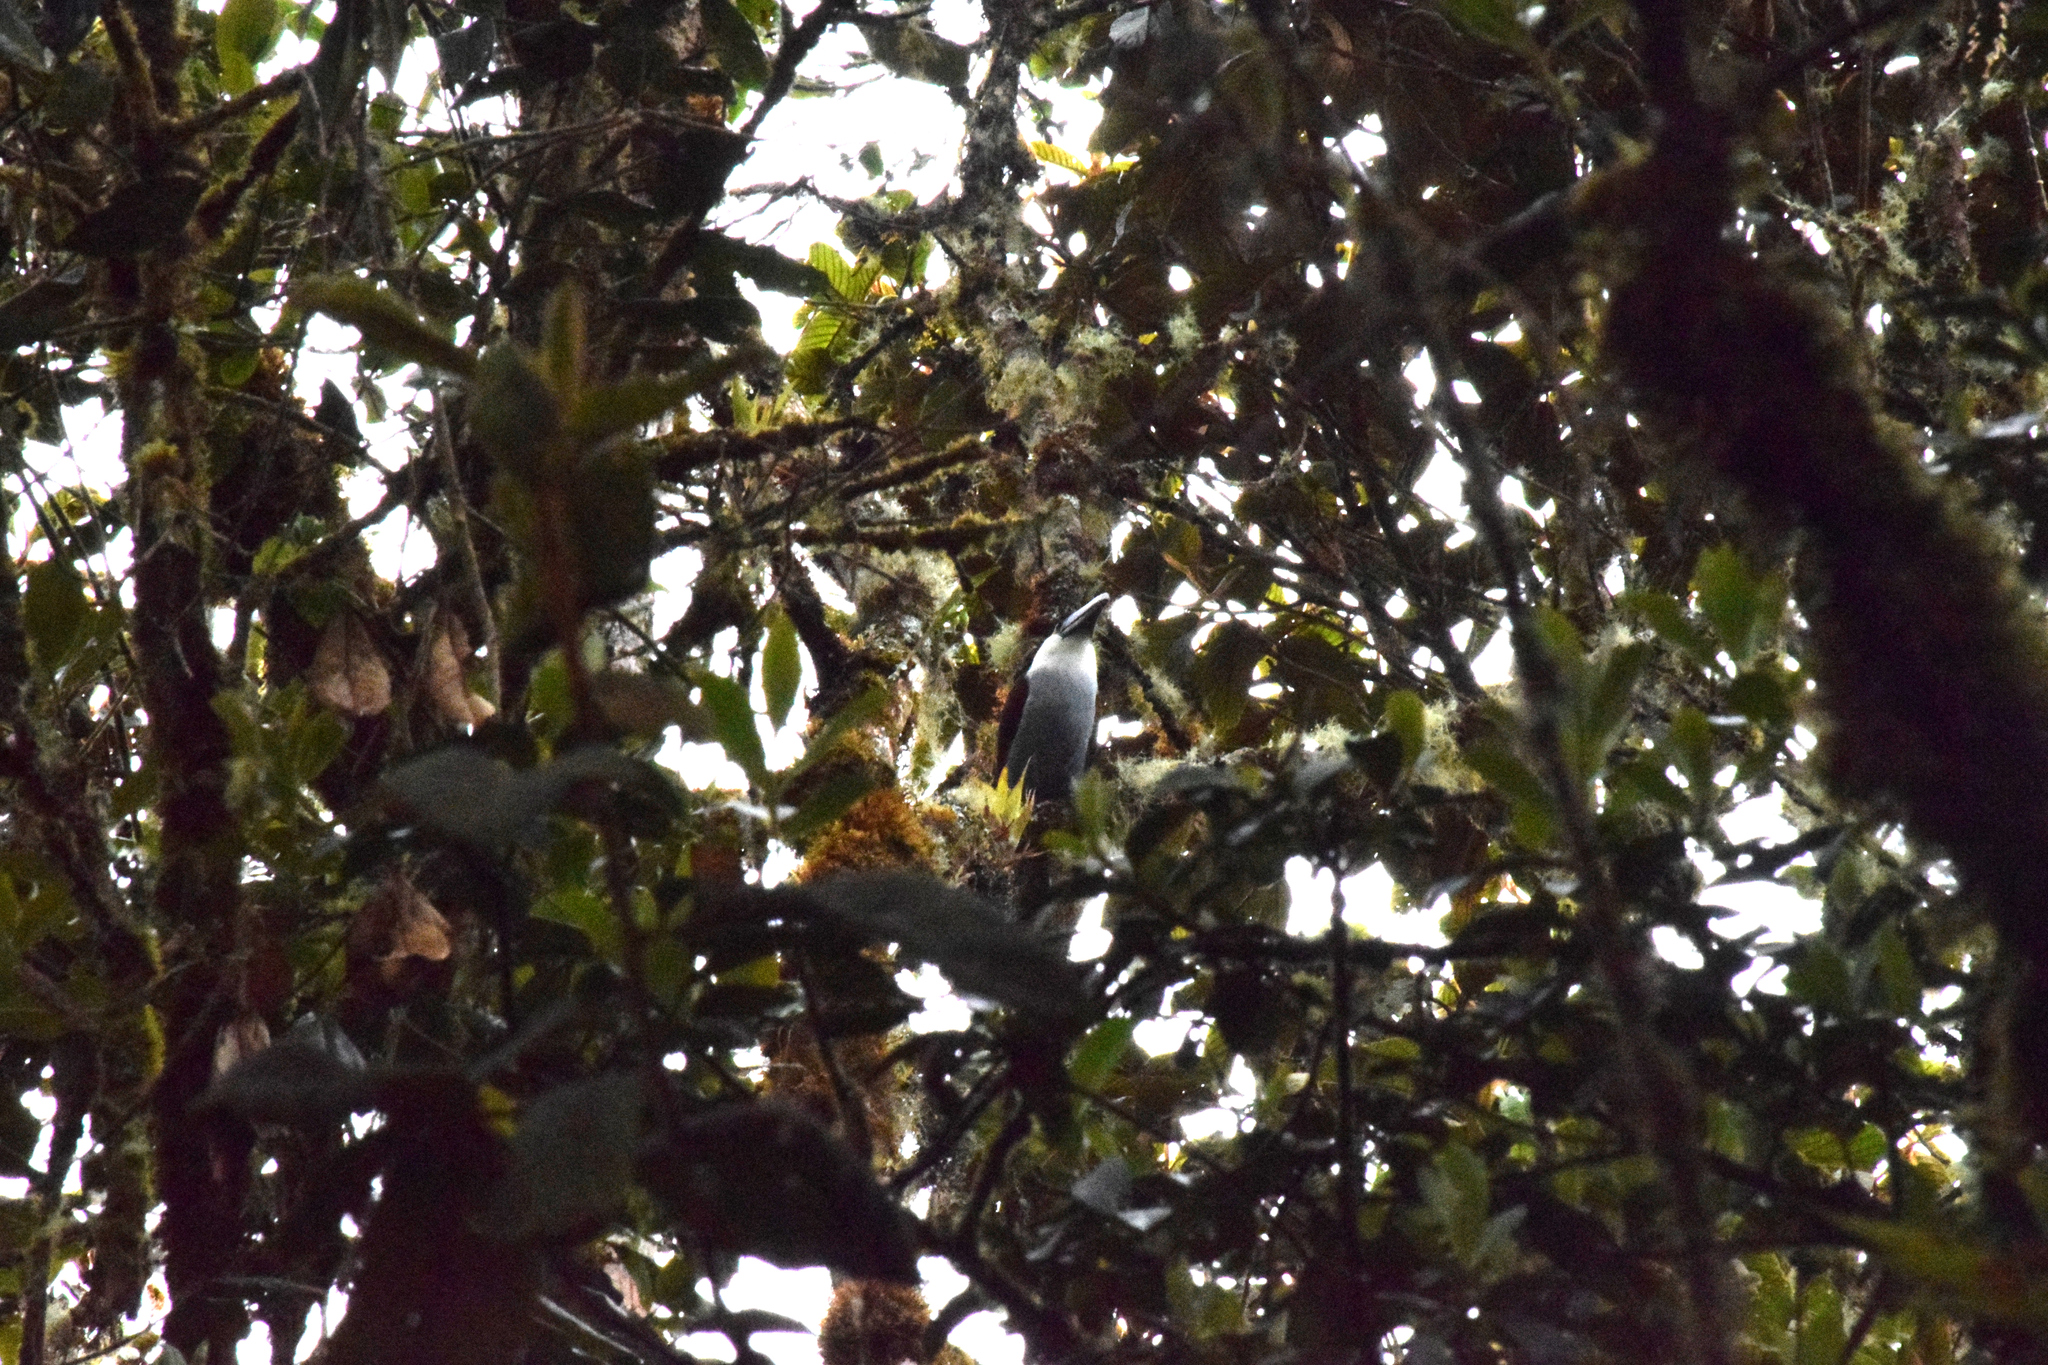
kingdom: Animalia
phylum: Chordata
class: Aves
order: Piciformes
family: Ramphastidae
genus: Andigena
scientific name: Andigena nigrirostris
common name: Black-billed mountain toucan
